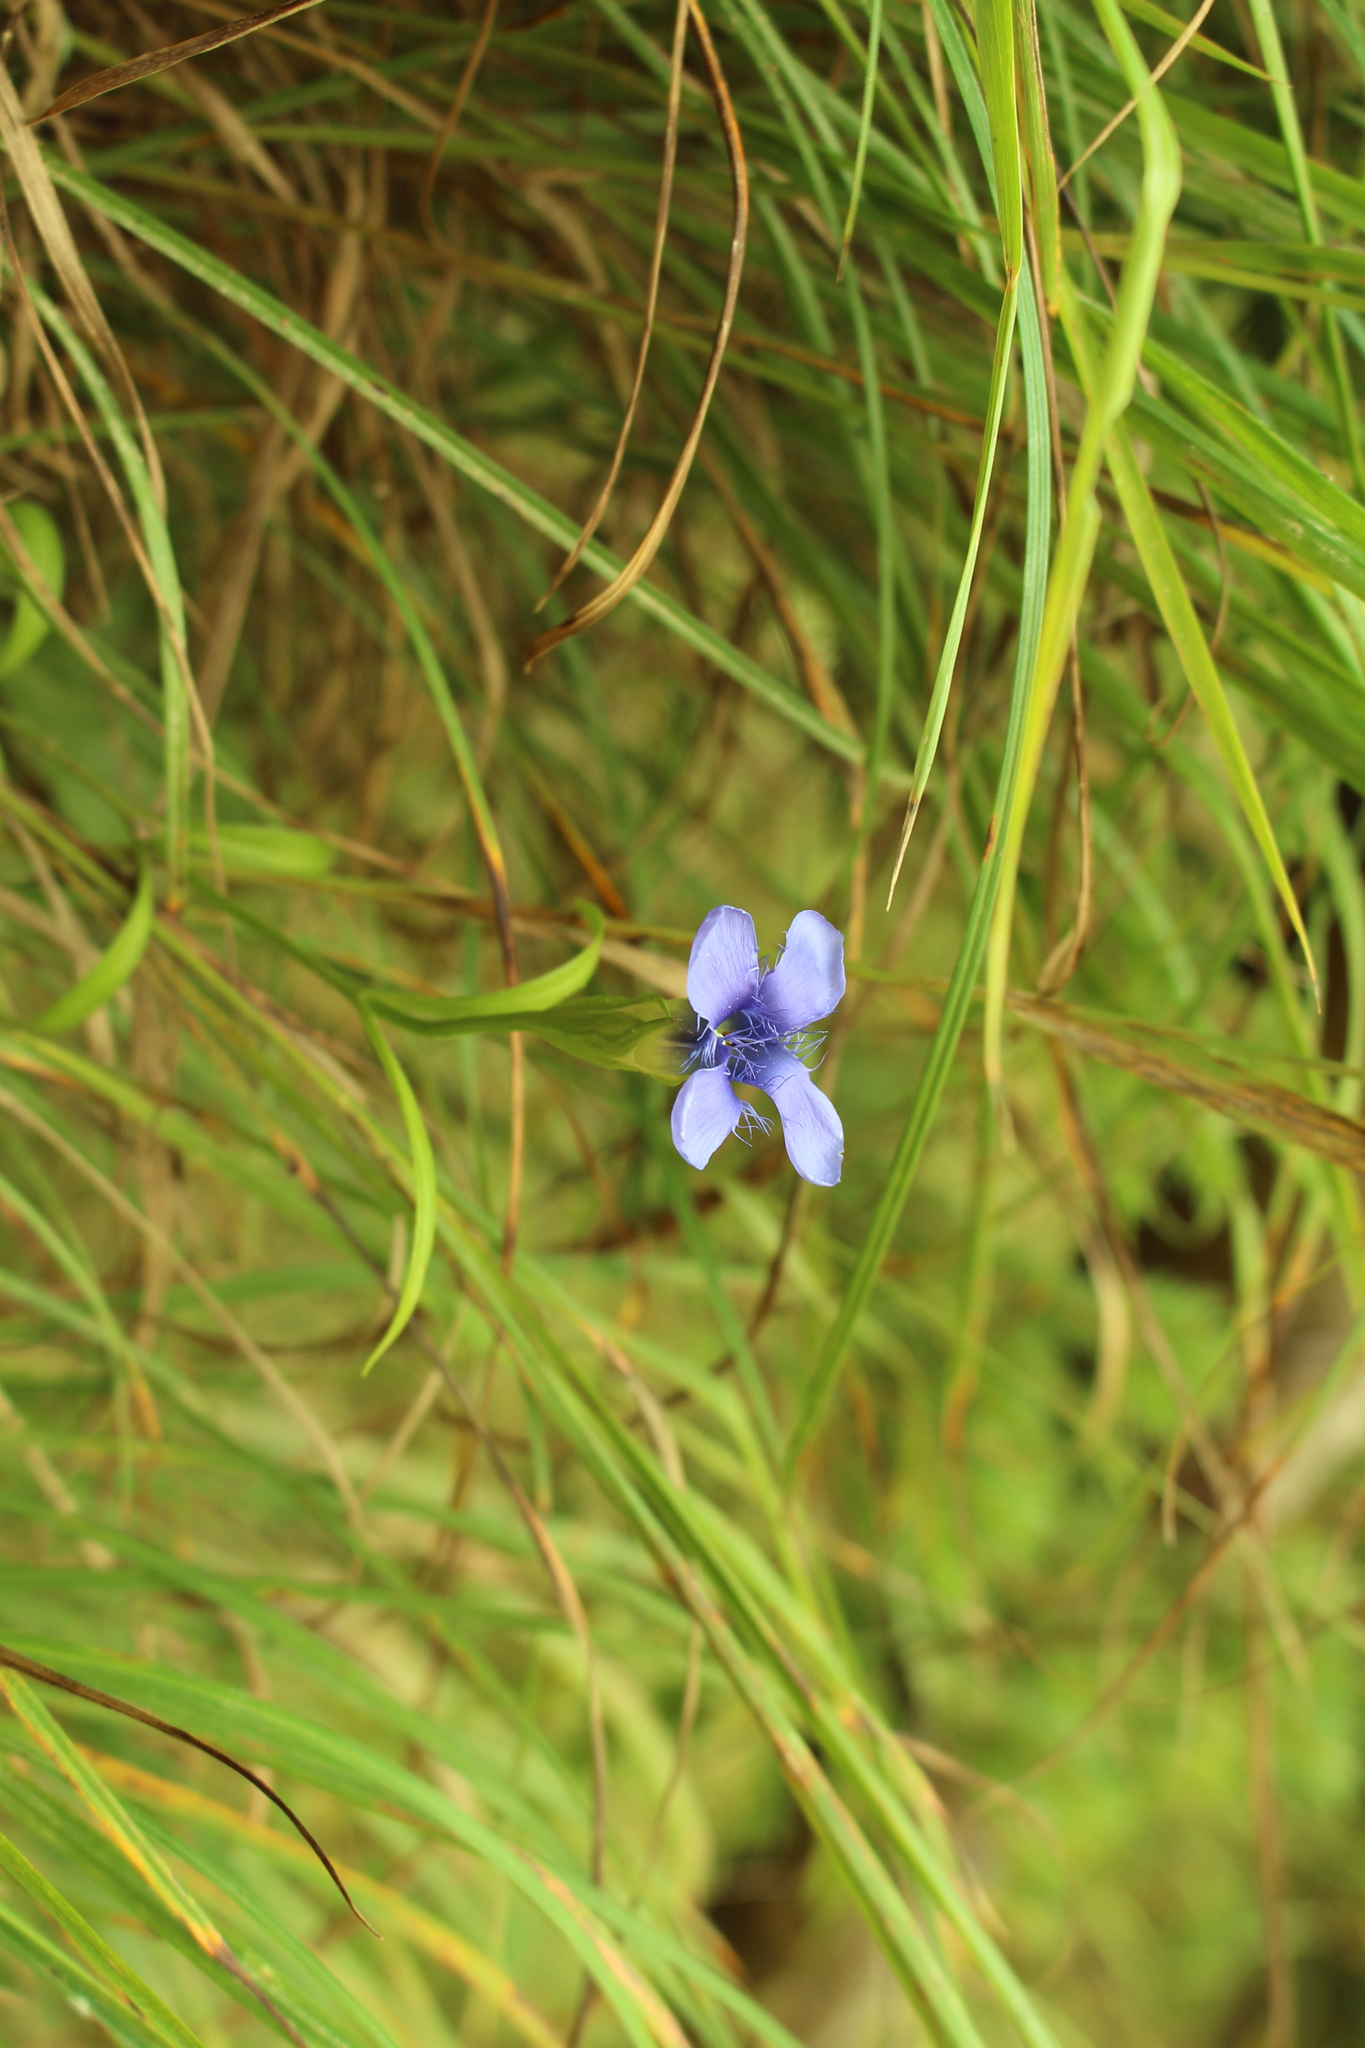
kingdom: Plantae
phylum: Tracheophyta
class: Magnoliopsida
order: Gentianales
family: Gentianaceae
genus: Gentianopsis
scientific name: Gentianopsis ciliata
